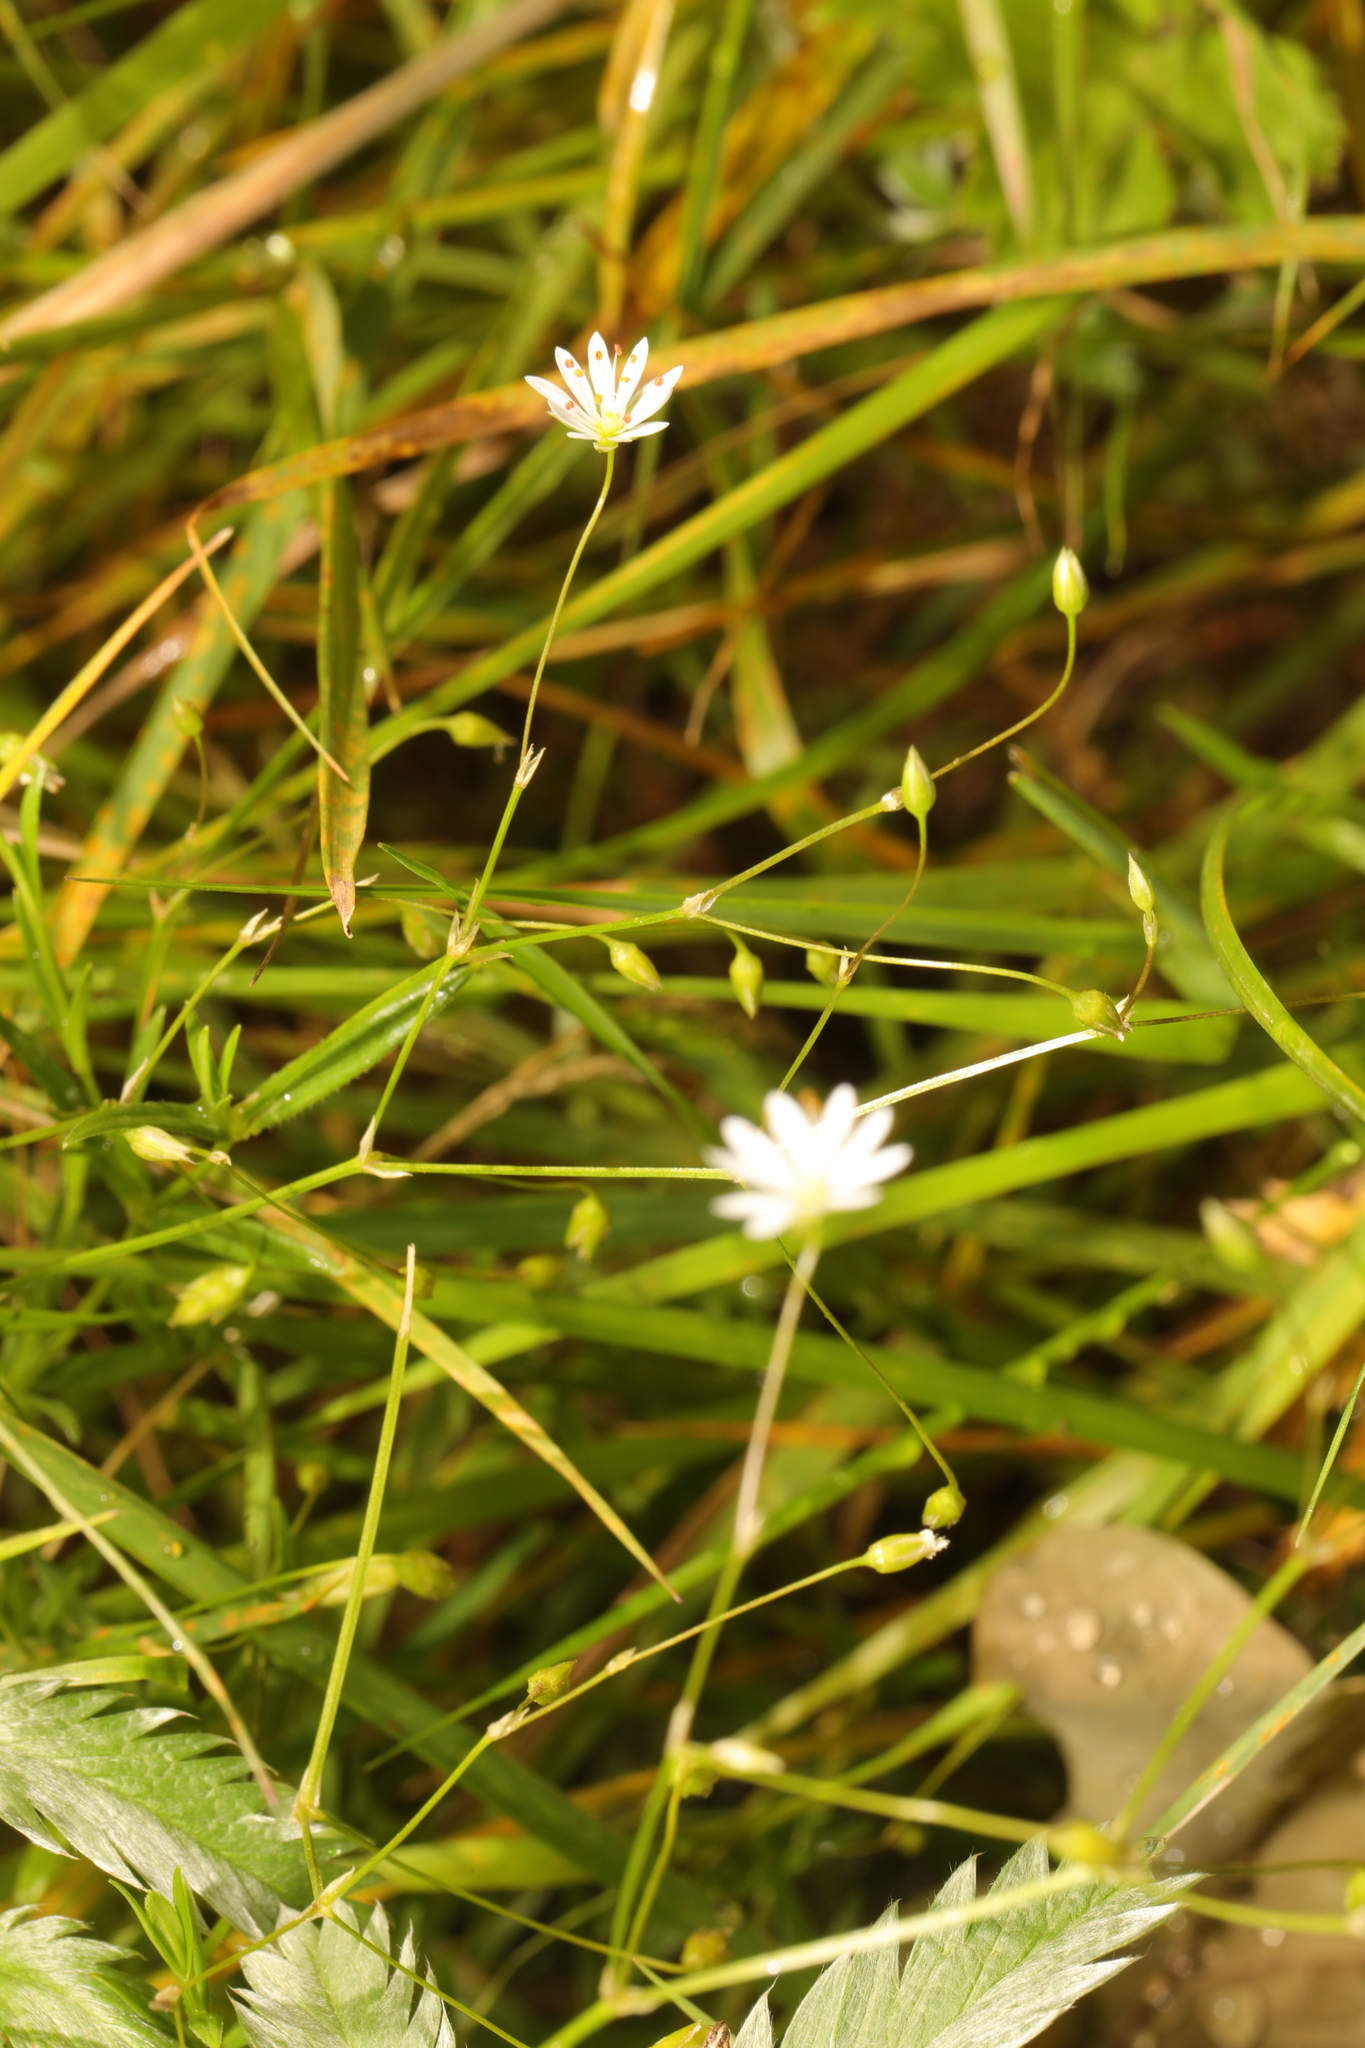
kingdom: Plantae
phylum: Tracheophyta
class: Magnoliopsida
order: Caryophyllales
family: Caryophyllaceae
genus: Stellaria
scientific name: Stellaria graminea
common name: Grass-like starwort
